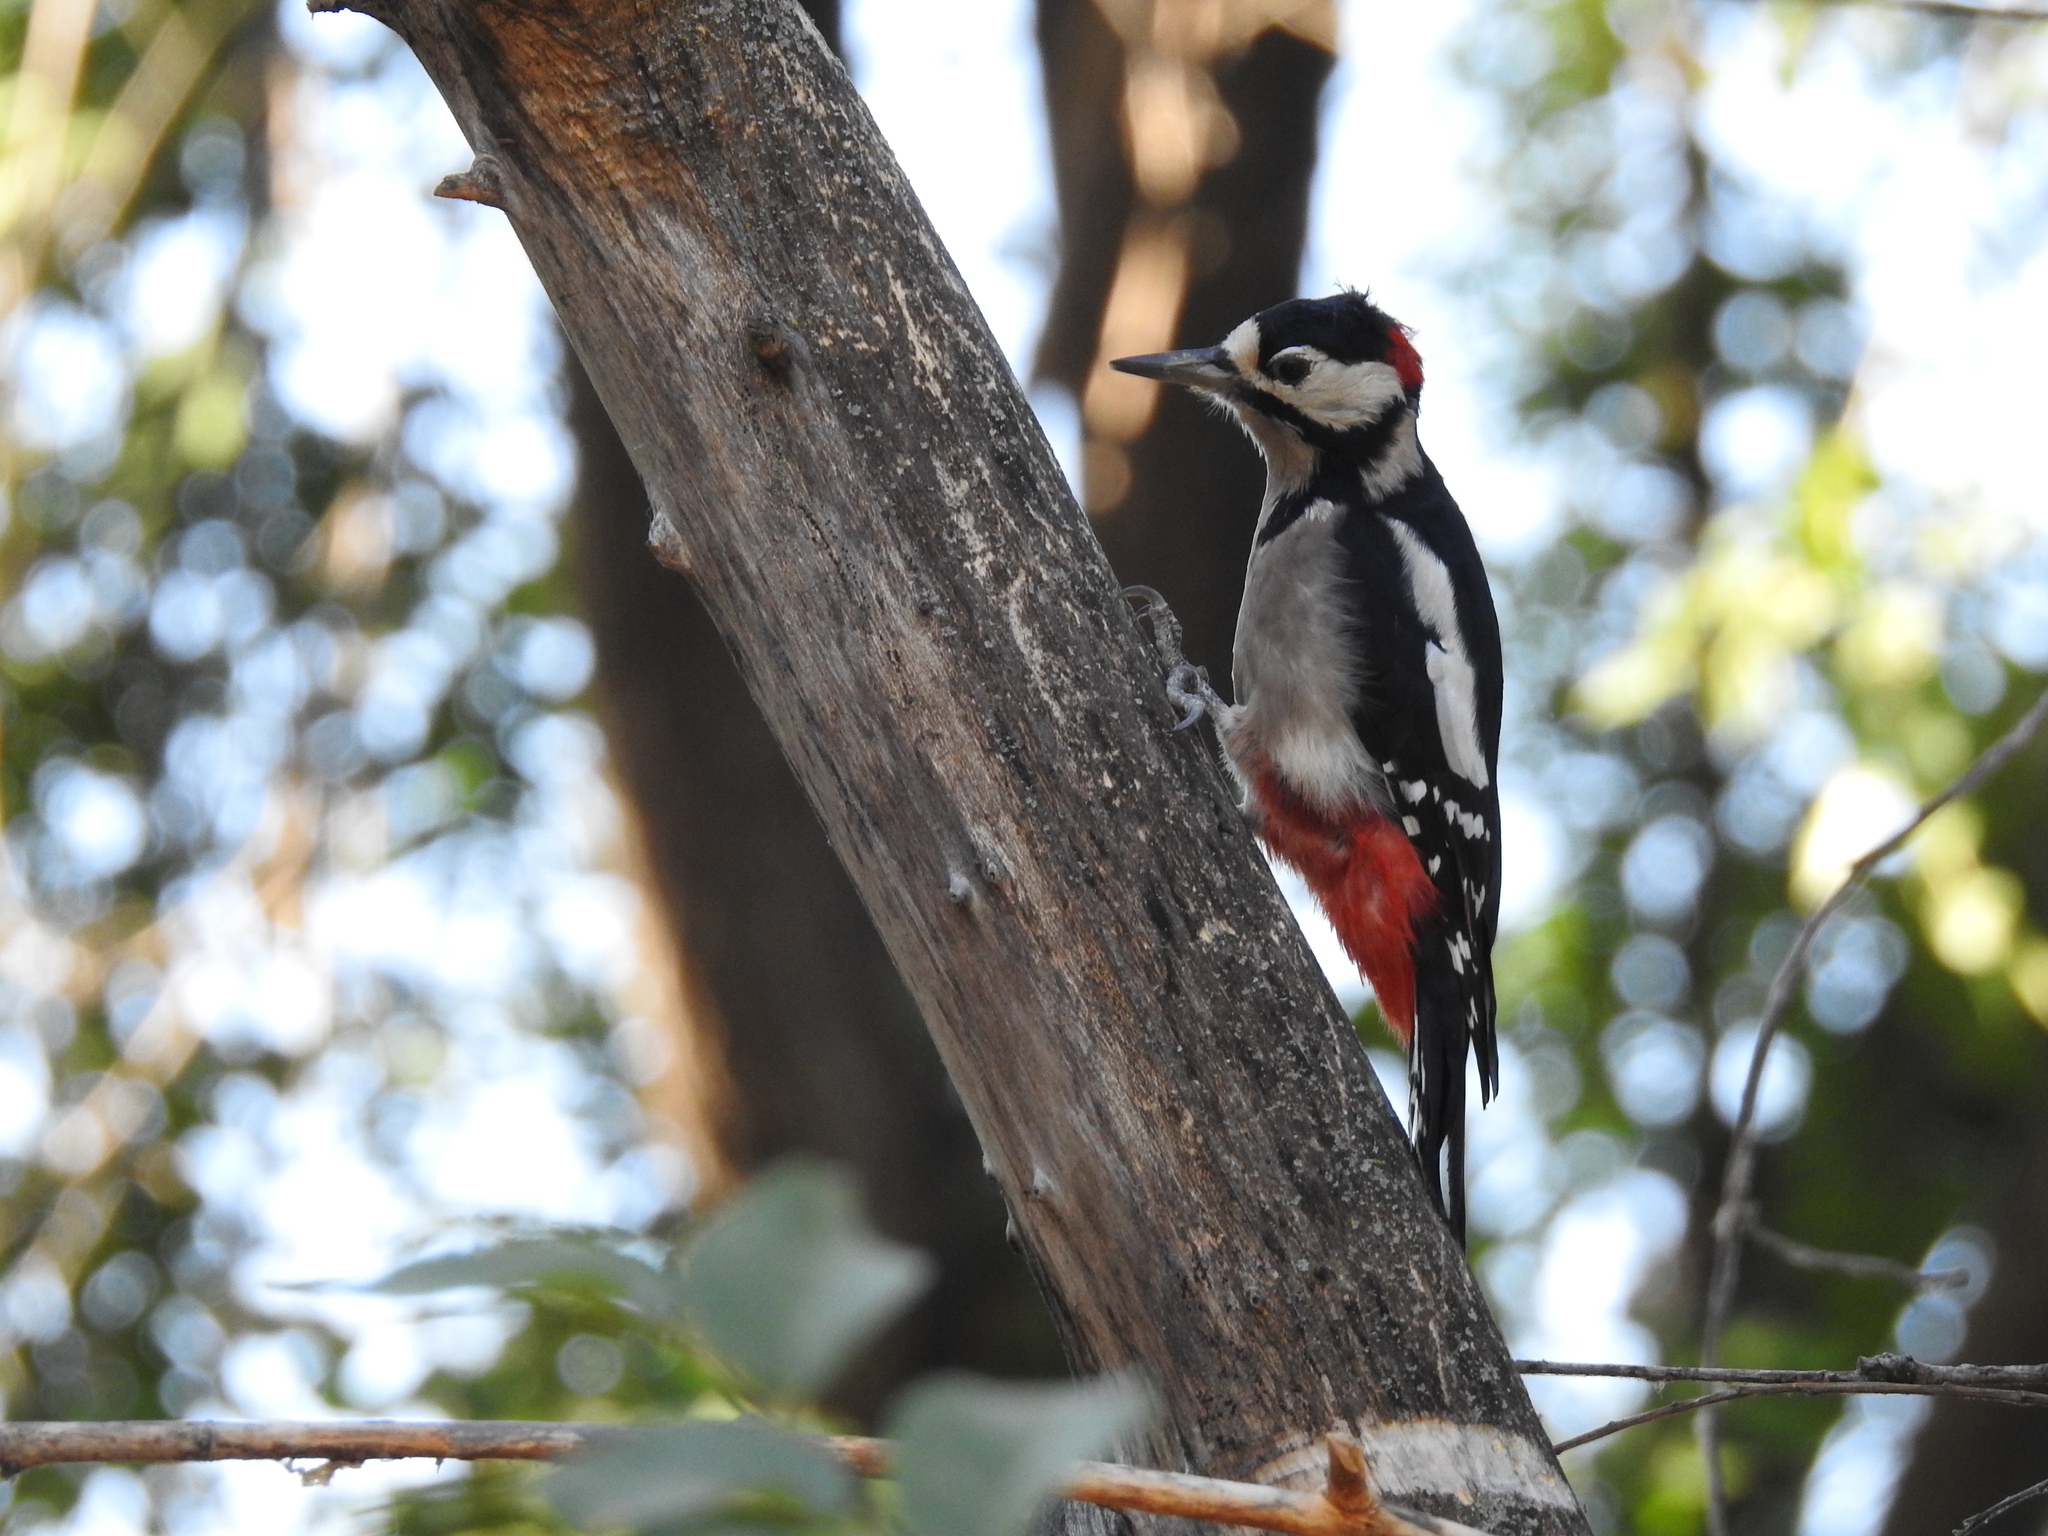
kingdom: Animalia
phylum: Chordata
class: Aves
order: Piciformes
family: Picidae
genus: Dendrocopos
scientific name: Dendrocopos major
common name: Great spotted woodpecker
